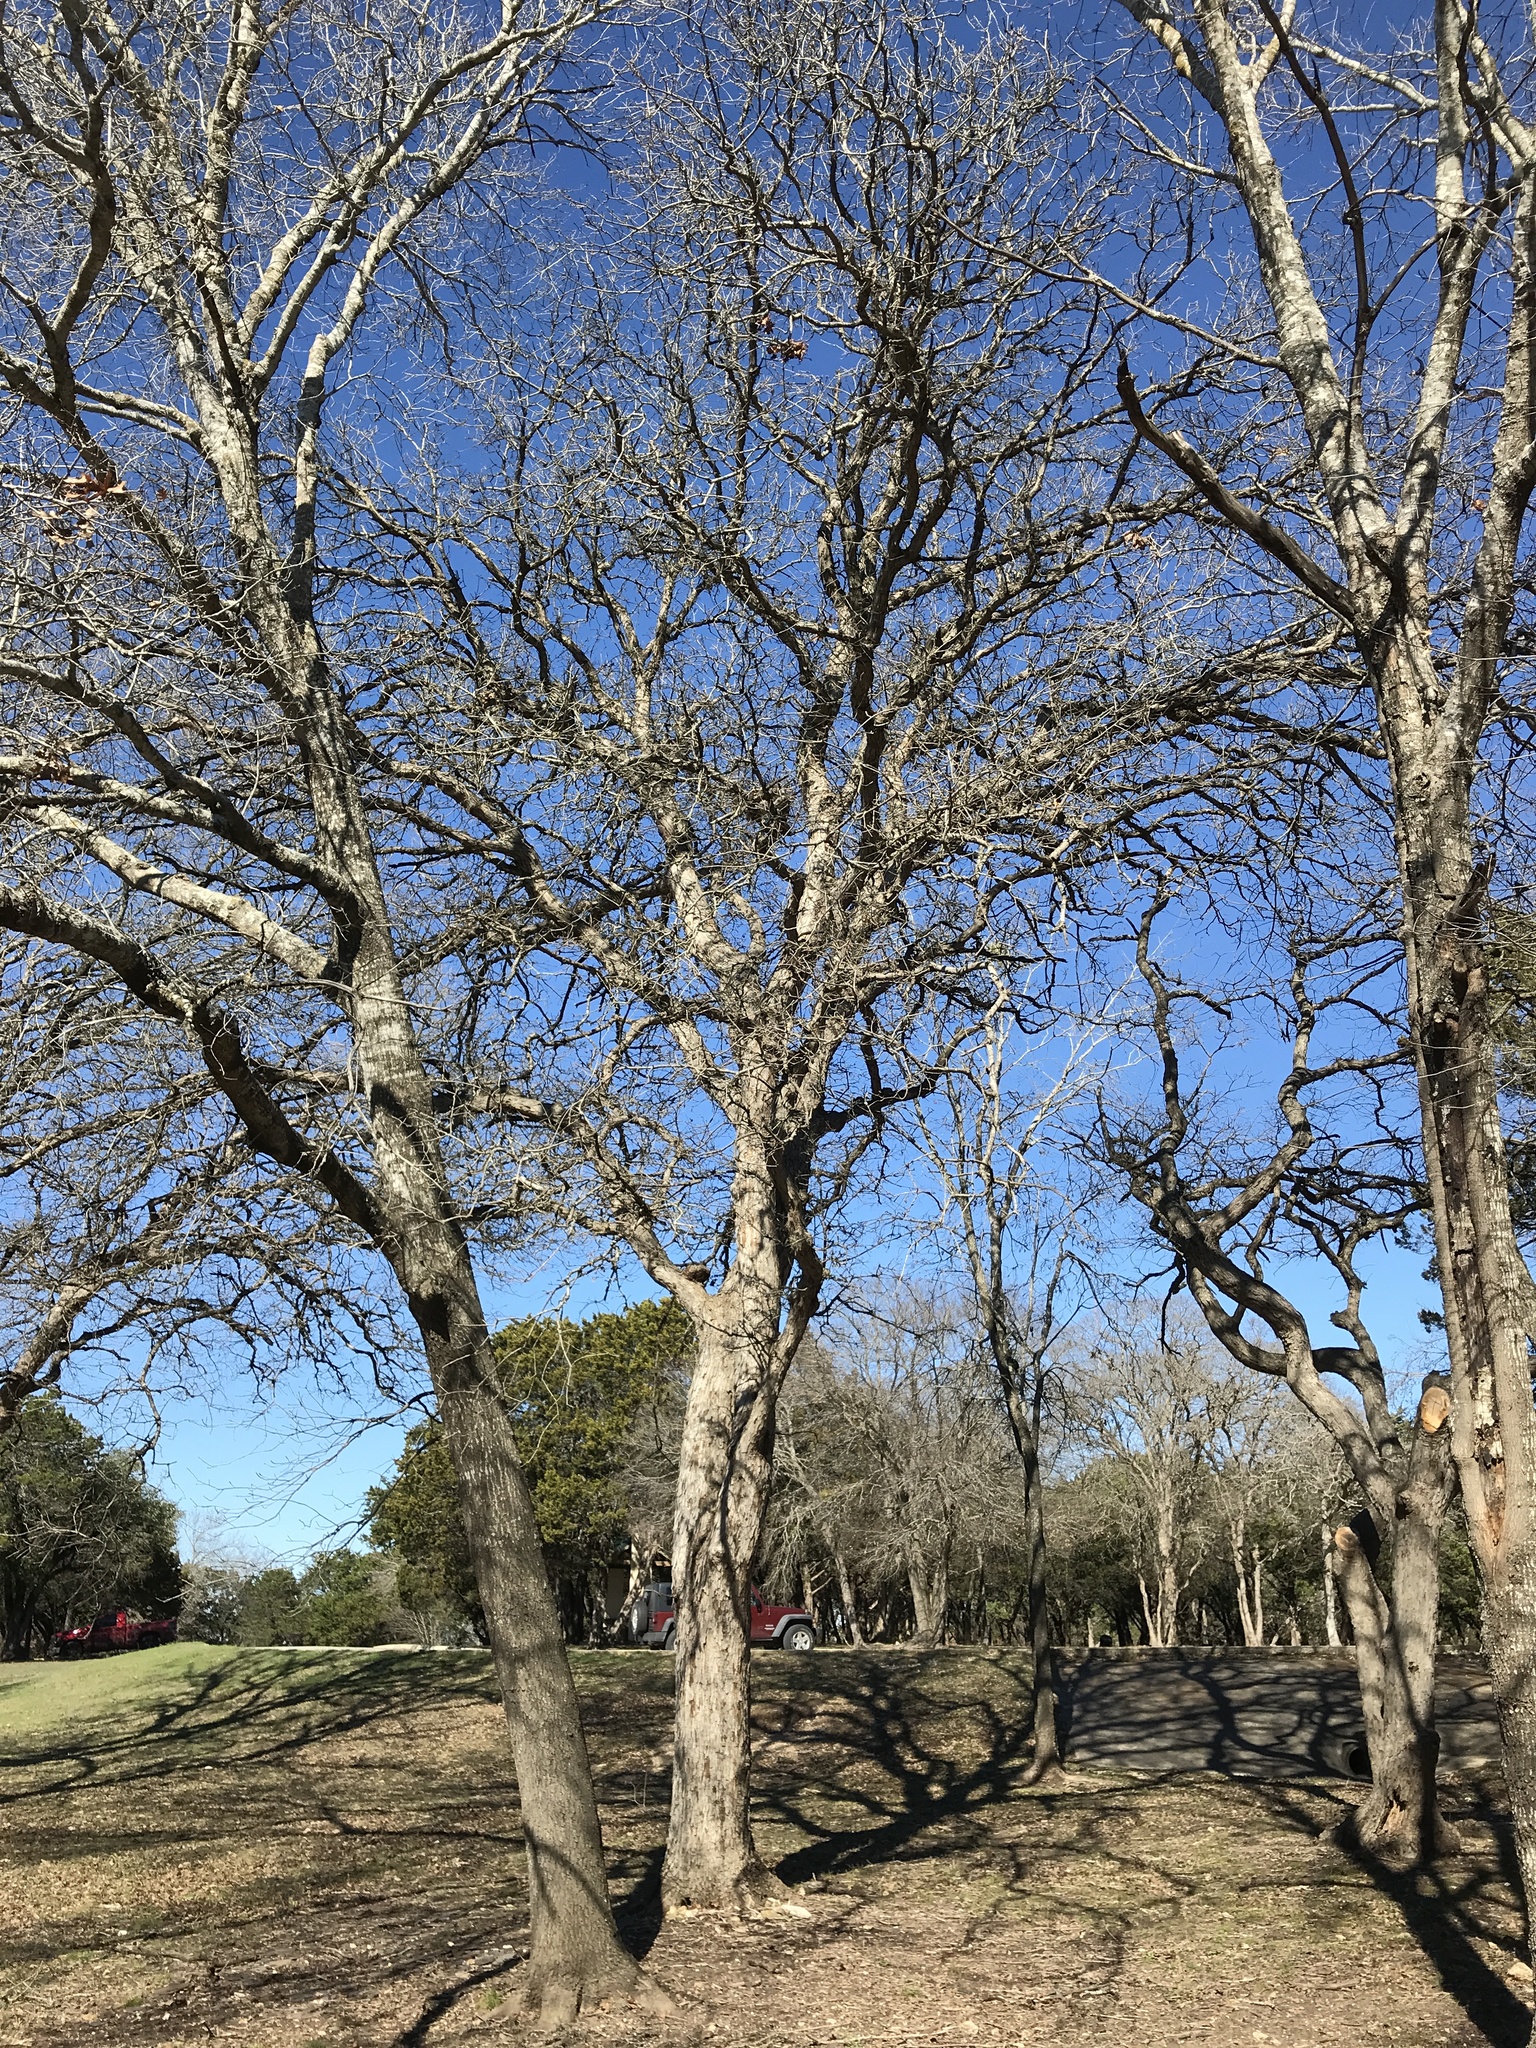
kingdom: Plantae
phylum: Tracheophyta
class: Magnoliopsida
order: Fagales
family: Fagaceae
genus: Quercus
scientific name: Quercus sinuata
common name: Durand oak
